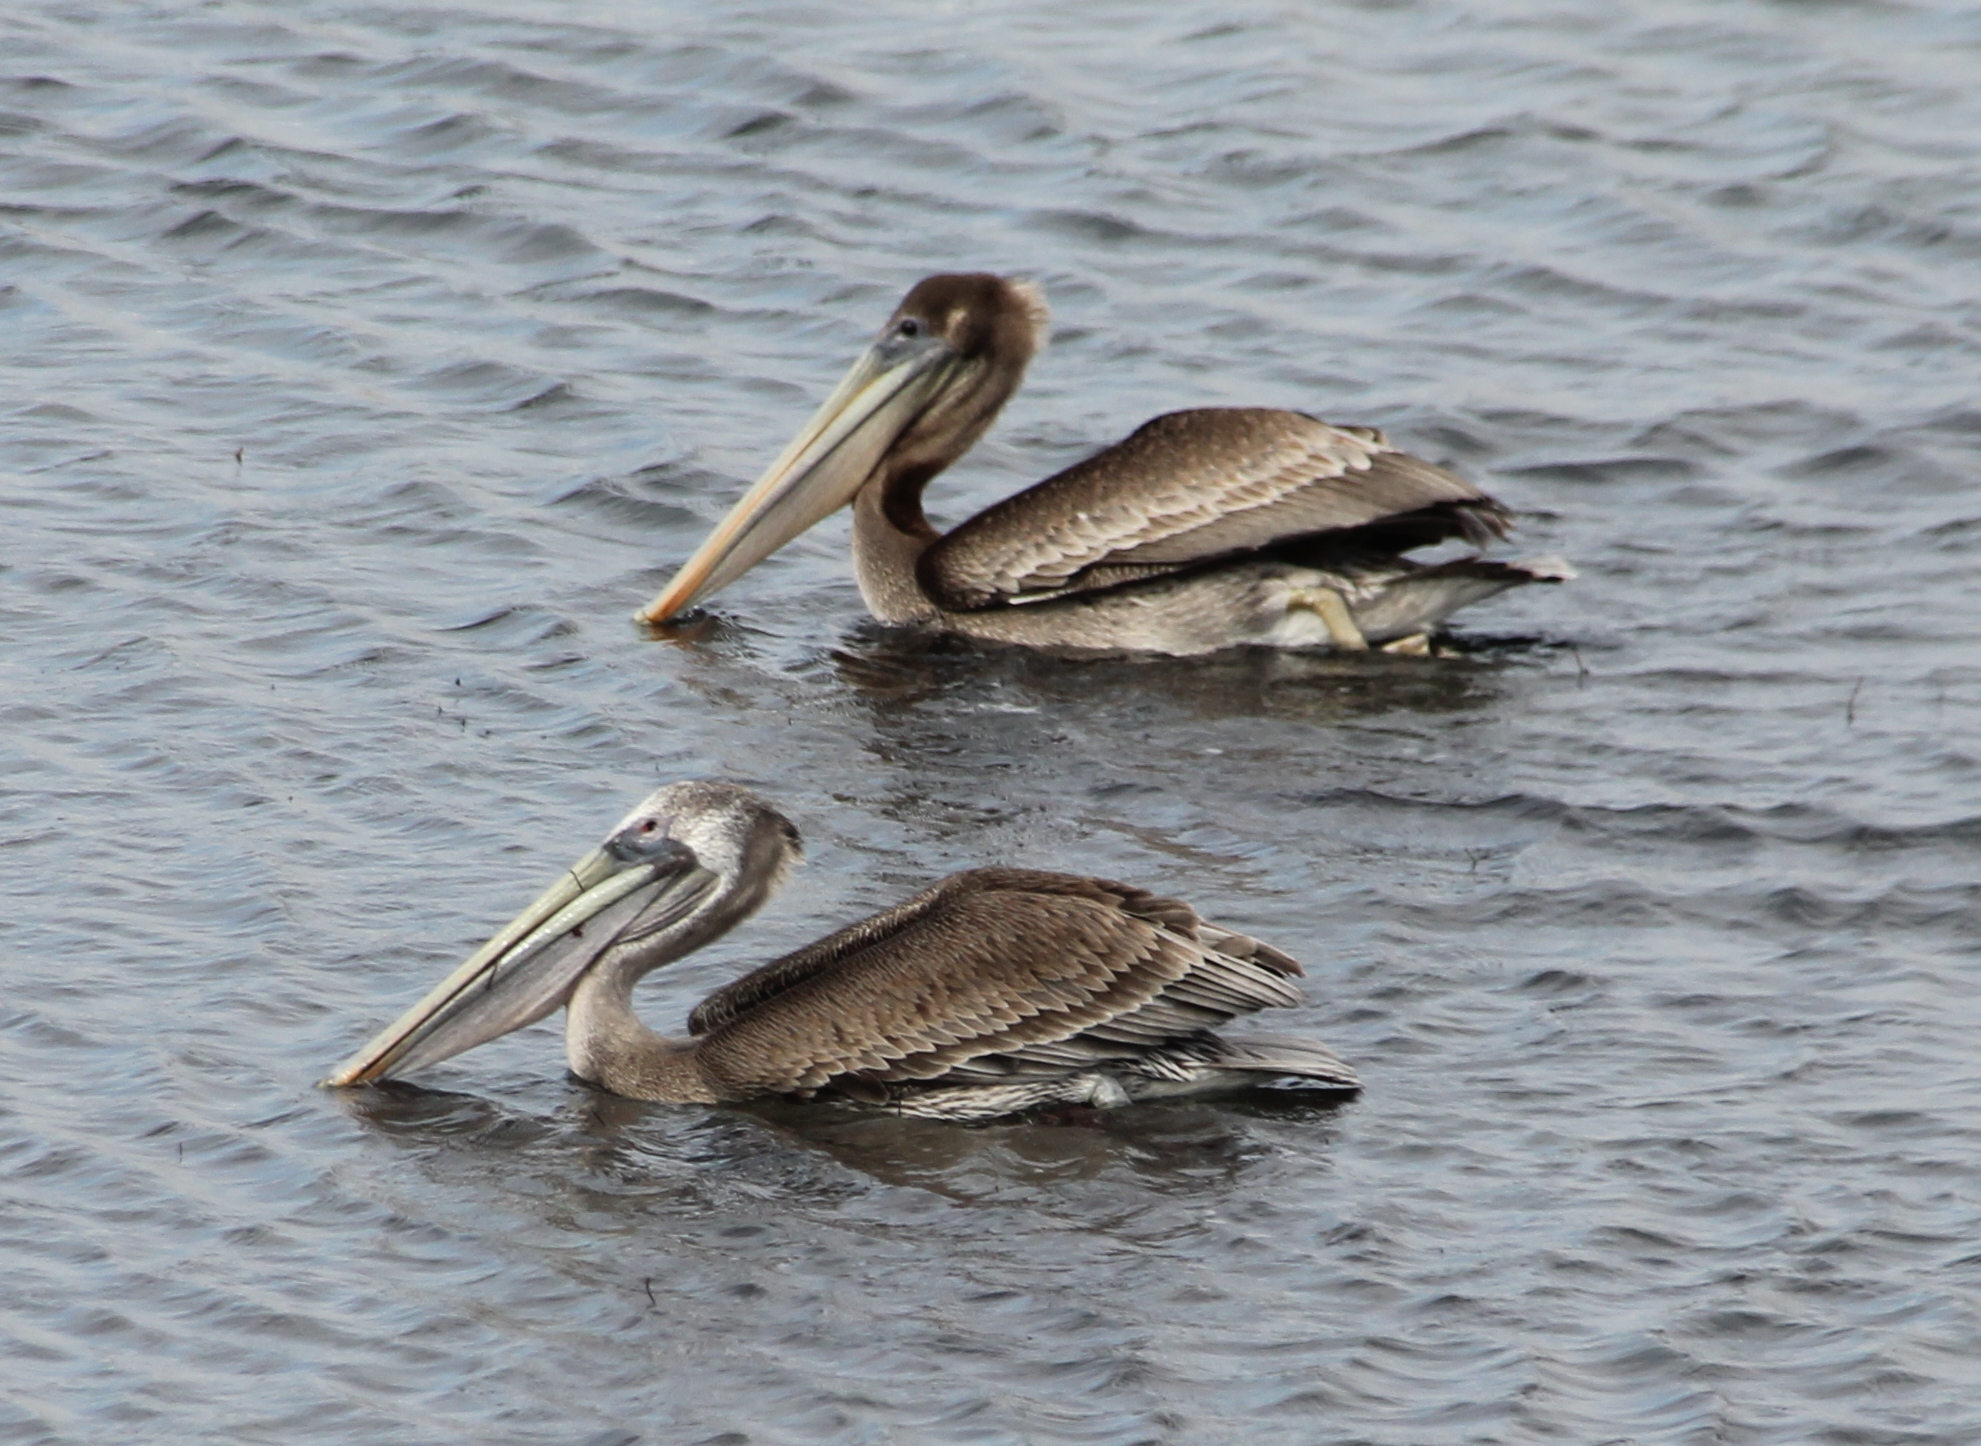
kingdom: Animalia
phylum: Chordata
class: Aves
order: Pelecaniformes
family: Pelecanidae
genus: Pelecanus
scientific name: Pelecanus occidentalis
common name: Brown pelican
